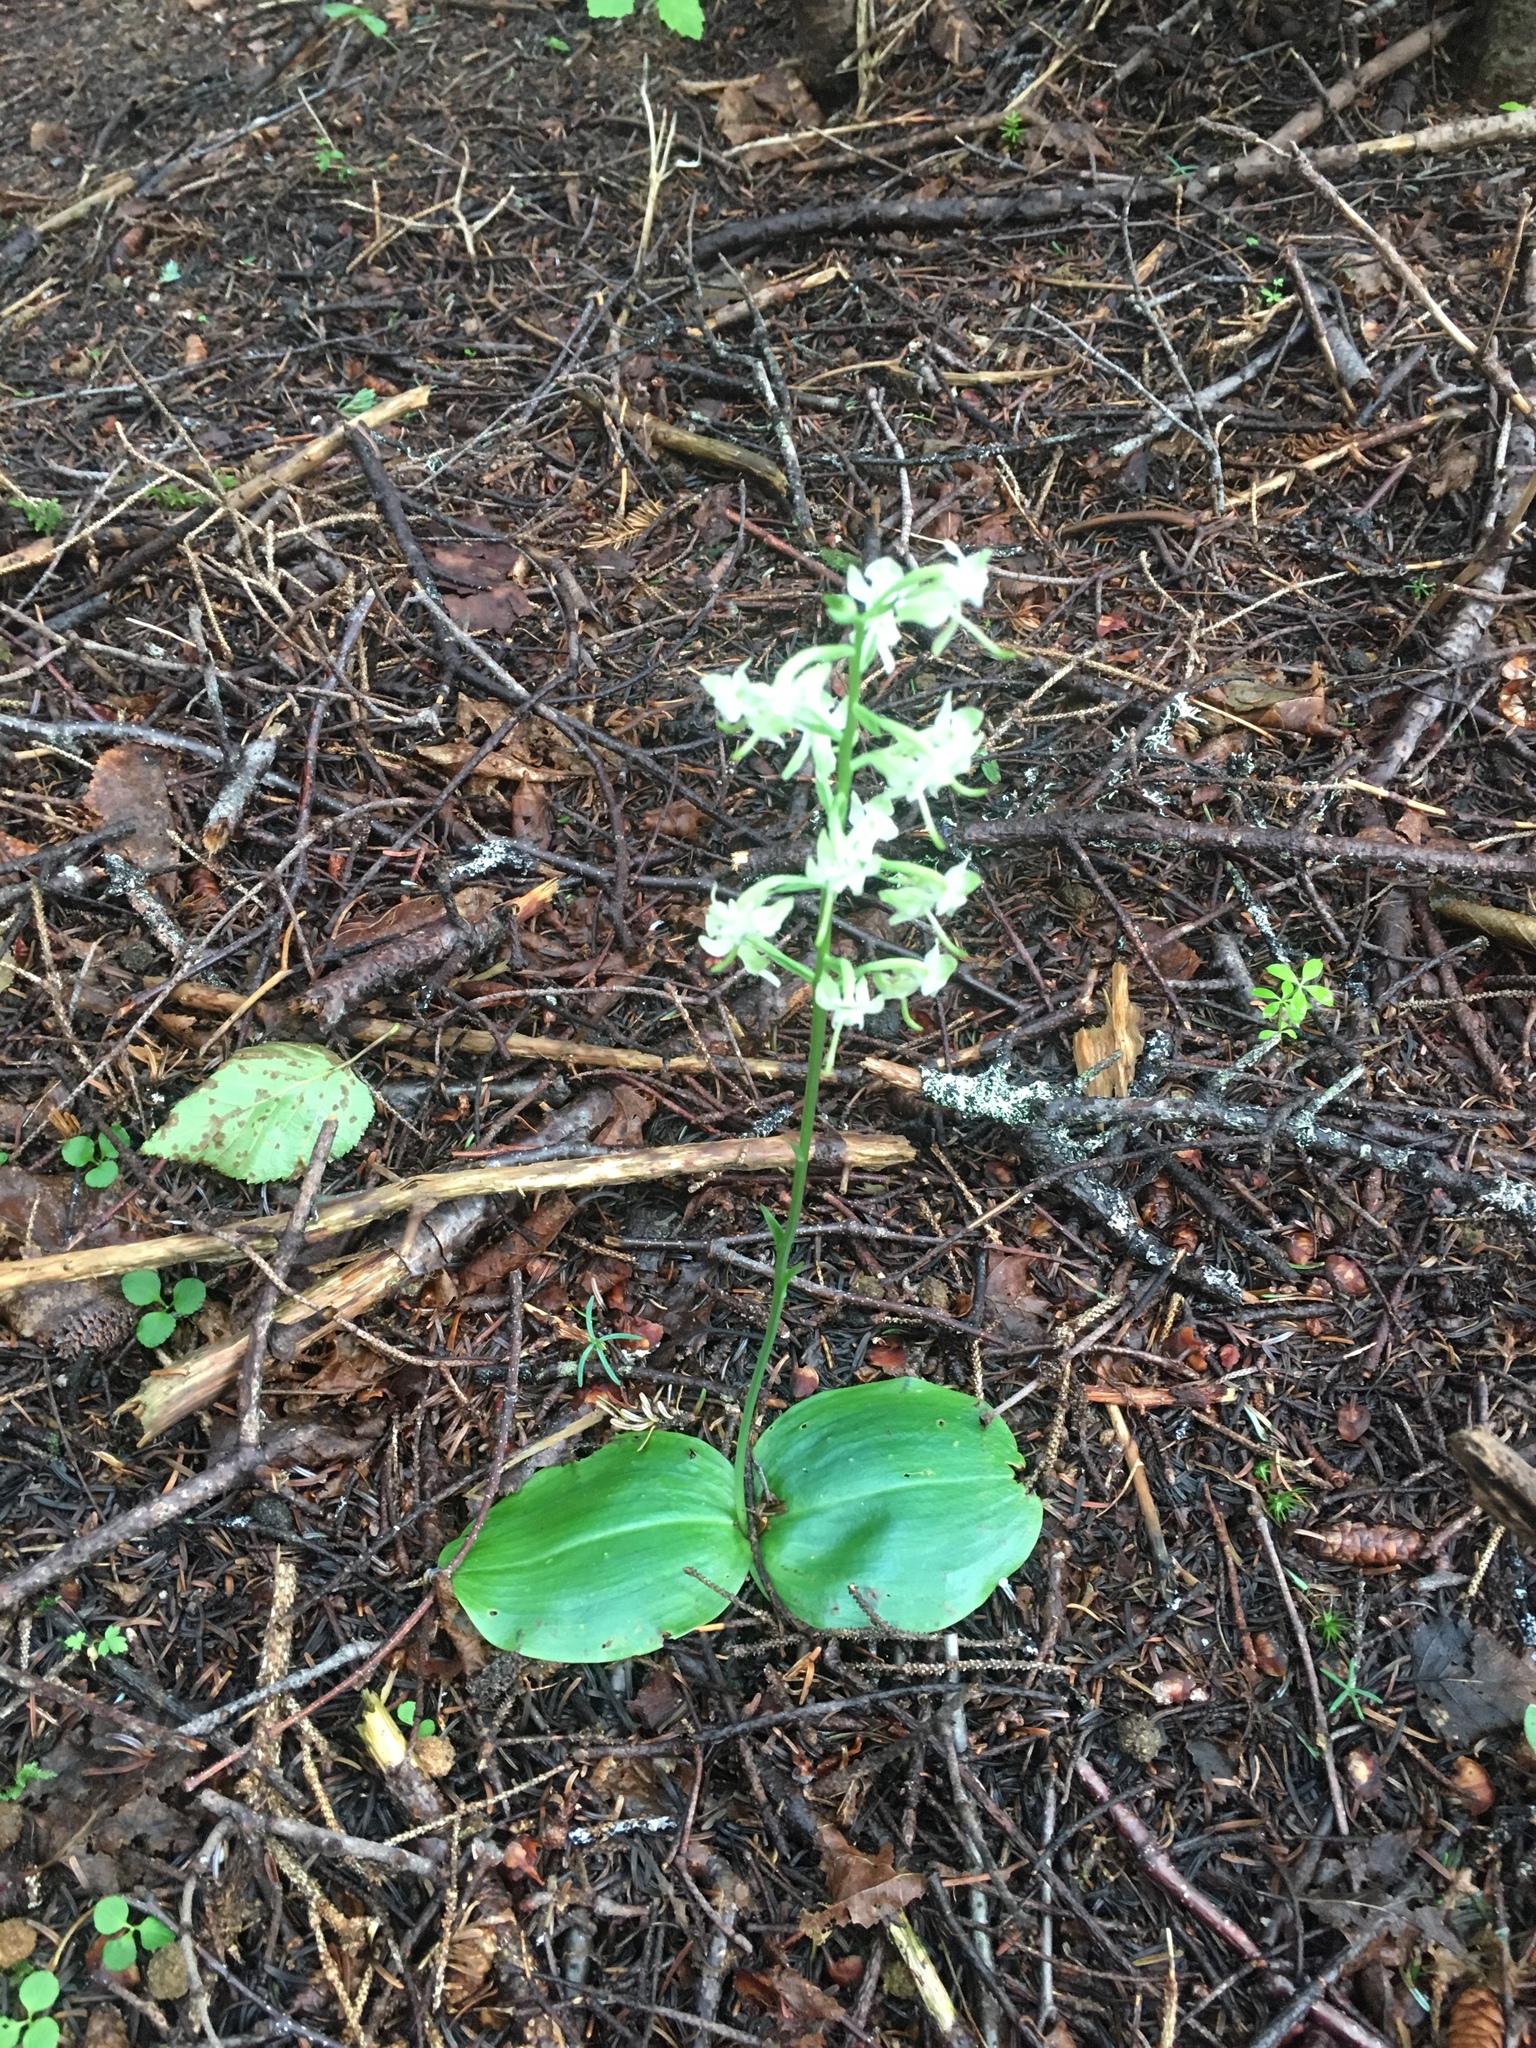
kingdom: Plantae
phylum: Tracheophyta
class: Liliopsida
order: Asparagales
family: Orchidaceae
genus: Platanthera
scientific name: Platanthera orbiculata
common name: Large round-leaved orchid
